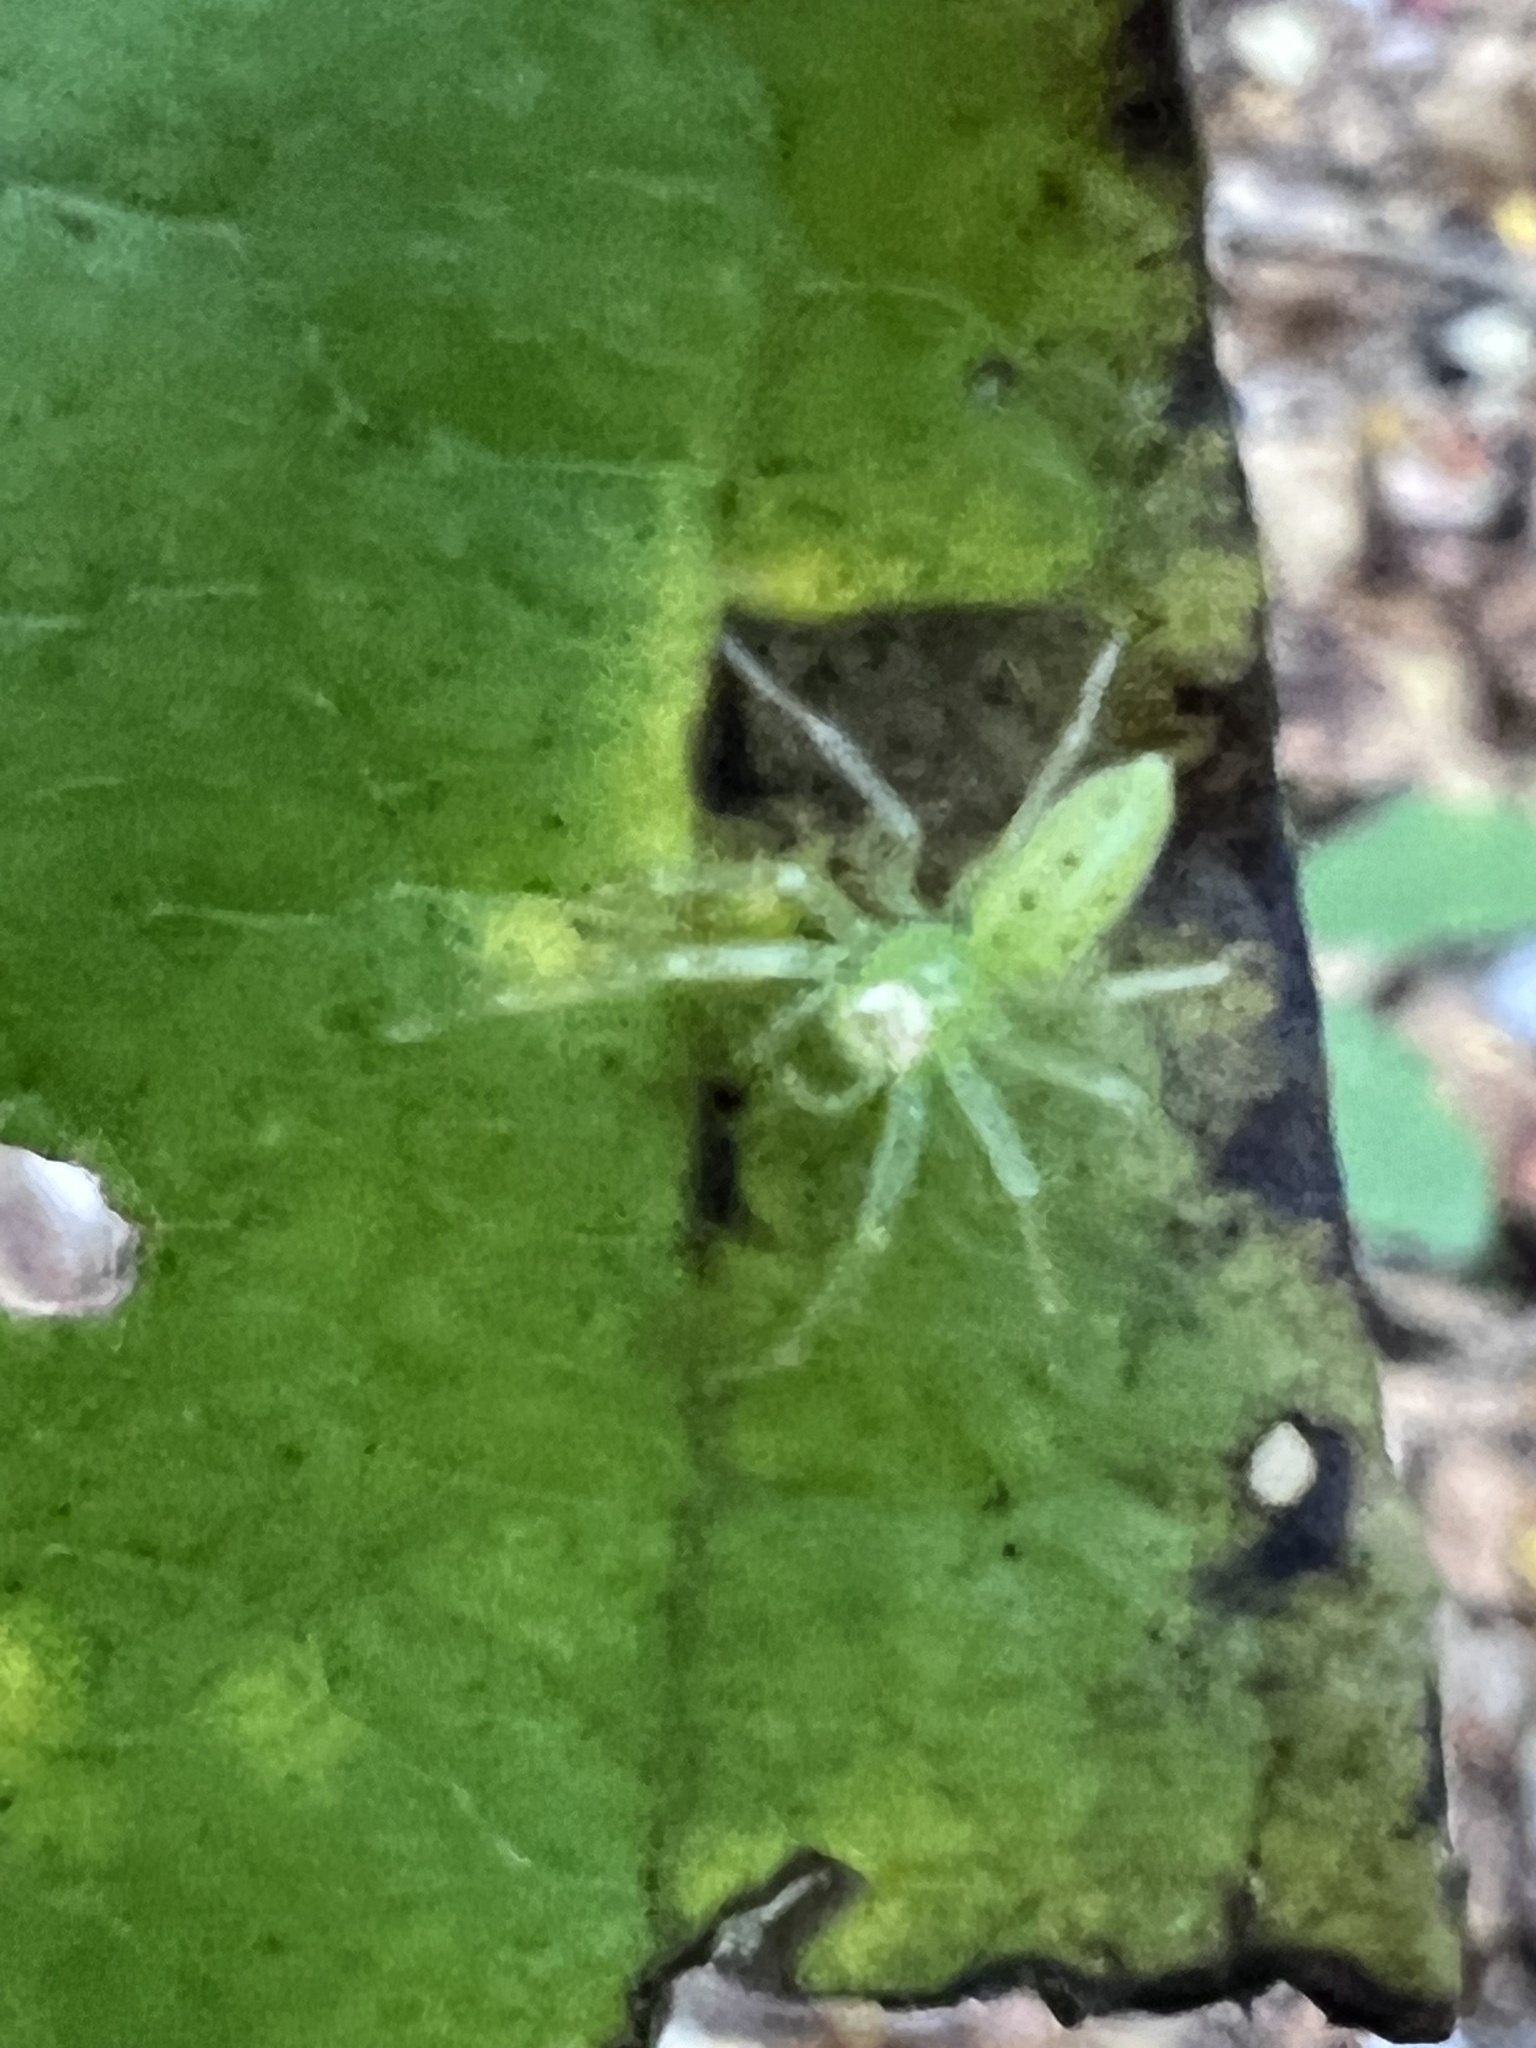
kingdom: Animalia
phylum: Arthropoda
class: Arachnida
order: Araneae
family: Salticidae
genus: Lyssomanes
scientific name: Lyssomanes viridis
